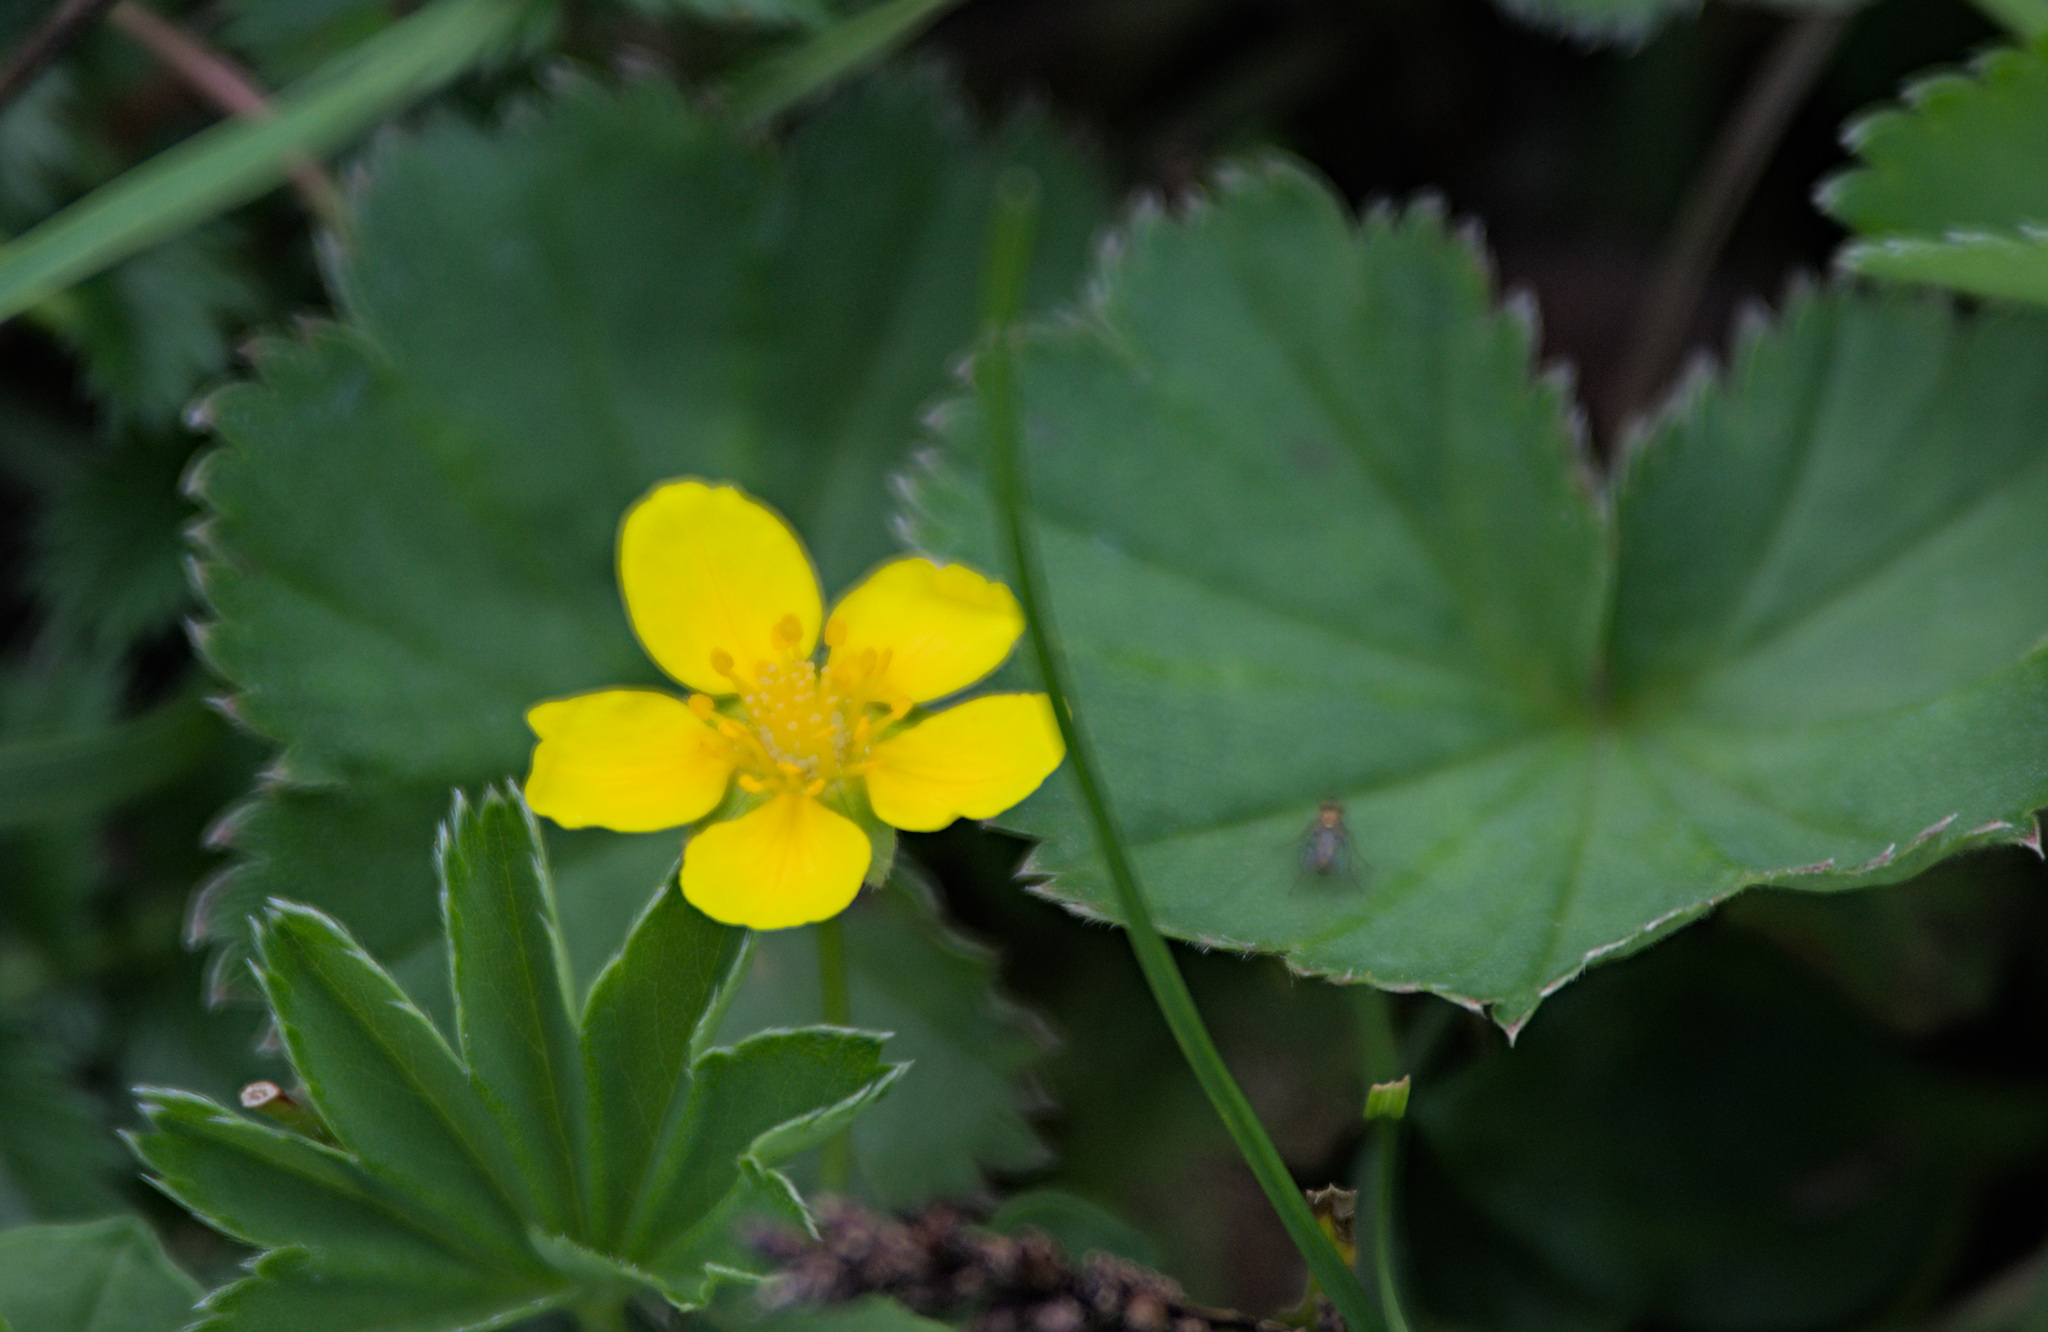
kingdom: Plantae
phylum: Tracheophyta
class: Magnoliopsida
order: Rosales
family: Rosaceae
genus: Argentina
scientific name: Argentina anserina
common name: Common silverweed
